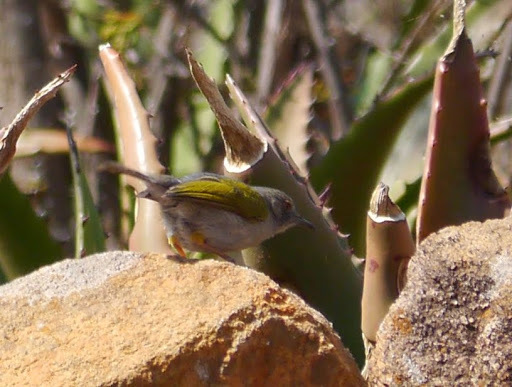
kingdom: Animalia
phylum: Chordata
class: Aves
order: Passeriformes
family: Cisticolidae
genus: Camaroptera
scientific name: Camaroptera brachyura
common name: Green-backed camaroptera
